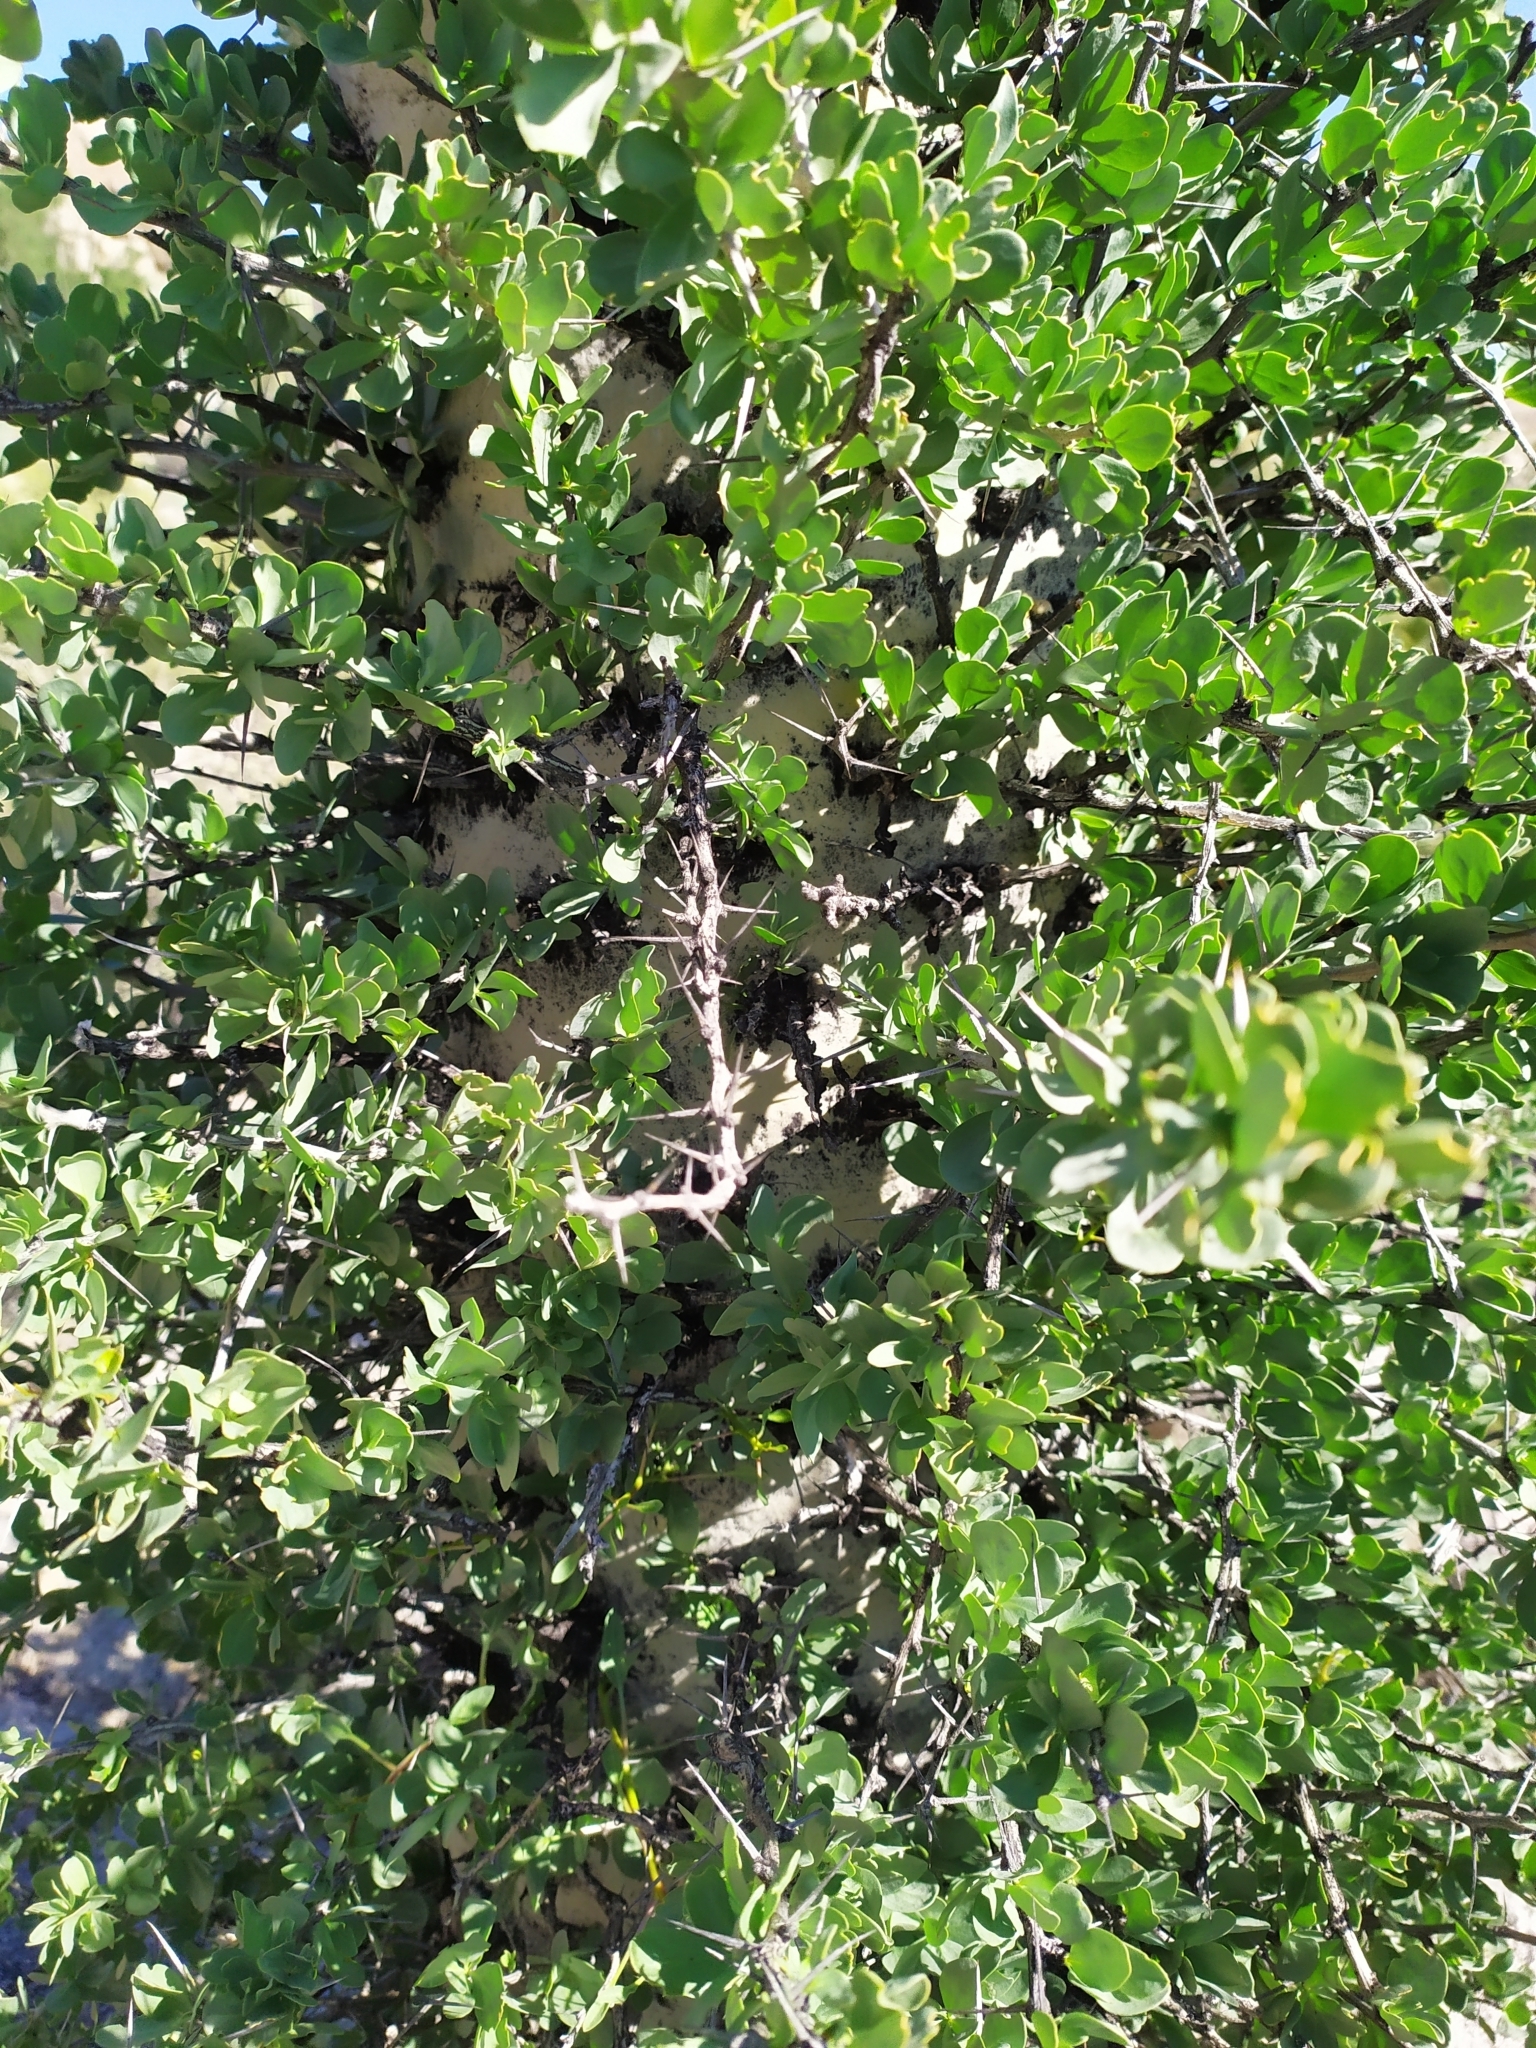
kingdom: Plantae
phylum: Tracheophyta
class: Magnoliopsida
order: Ericales
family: Fouquieriaceae
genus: Fouquieria
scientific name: Fouquieria columnaris
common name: Boojumtree
